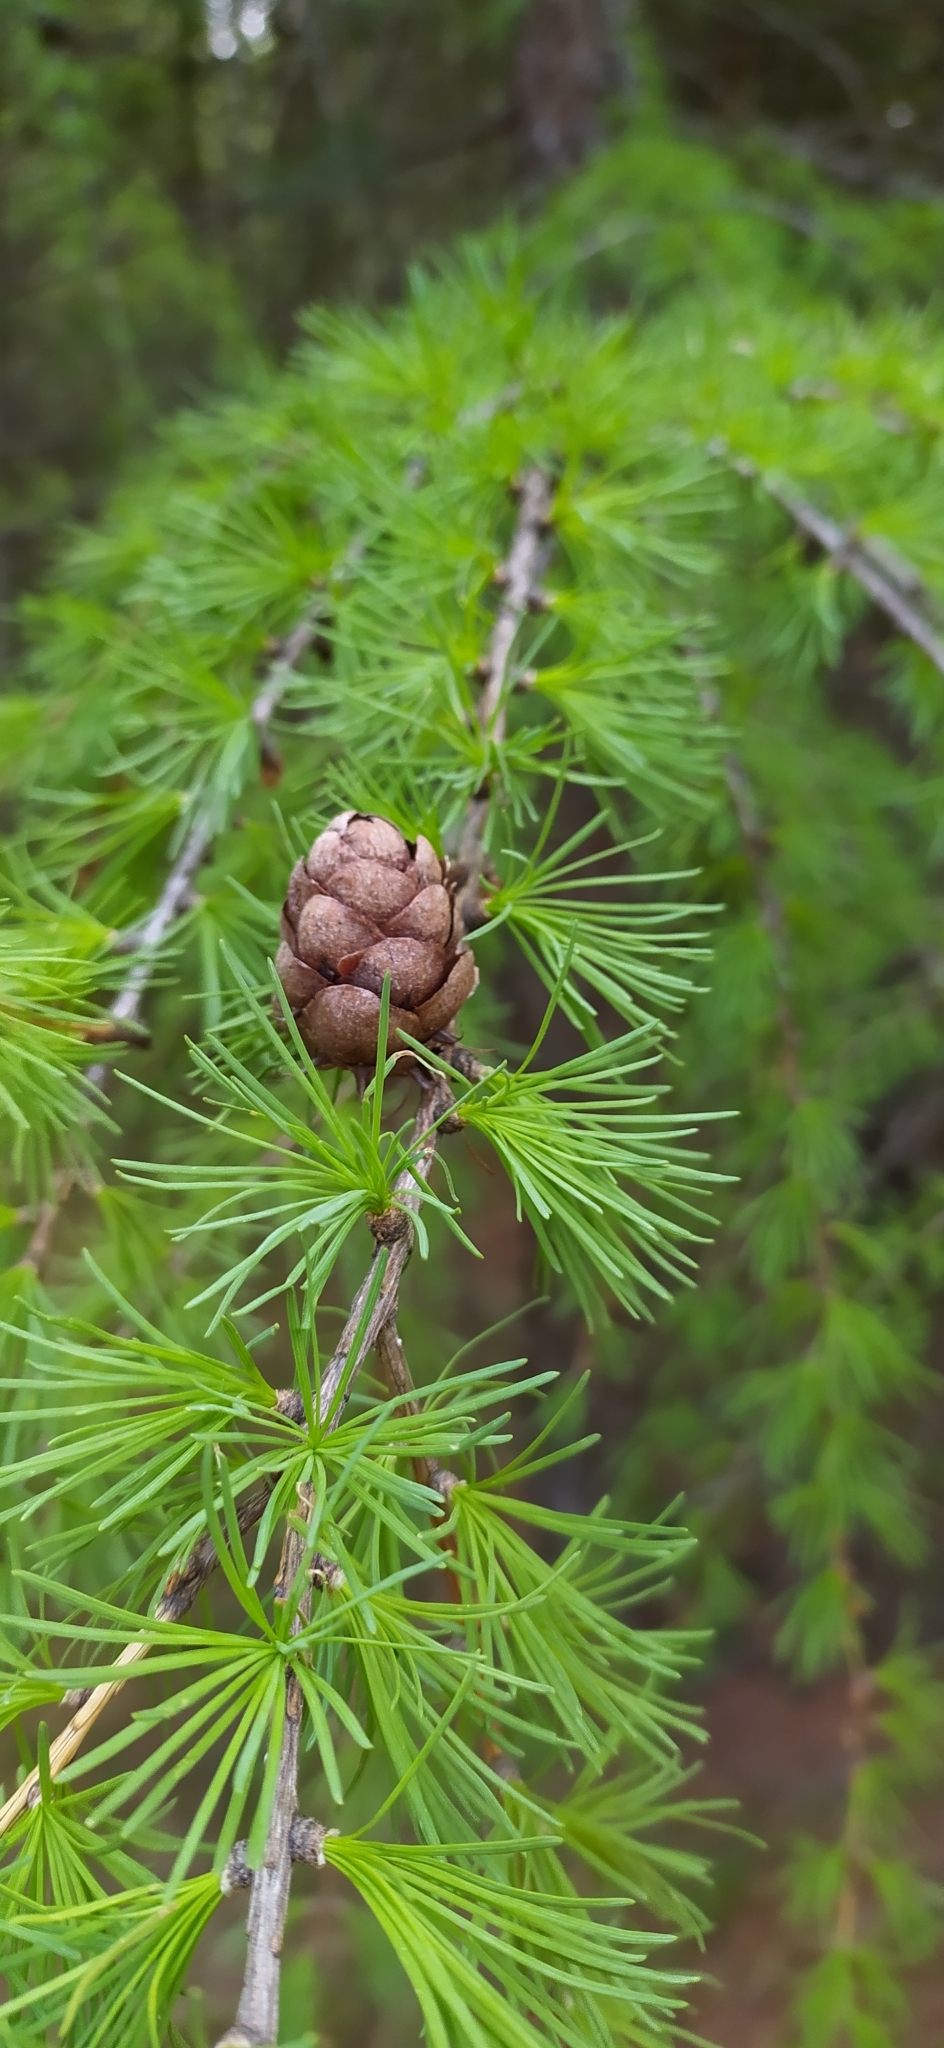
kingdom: Plantae
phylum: Tracheophyta
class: Pinopsida
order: Pinales
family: Pinaceae
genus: Larix
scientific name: Larix sibirica
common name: Siberian larch
